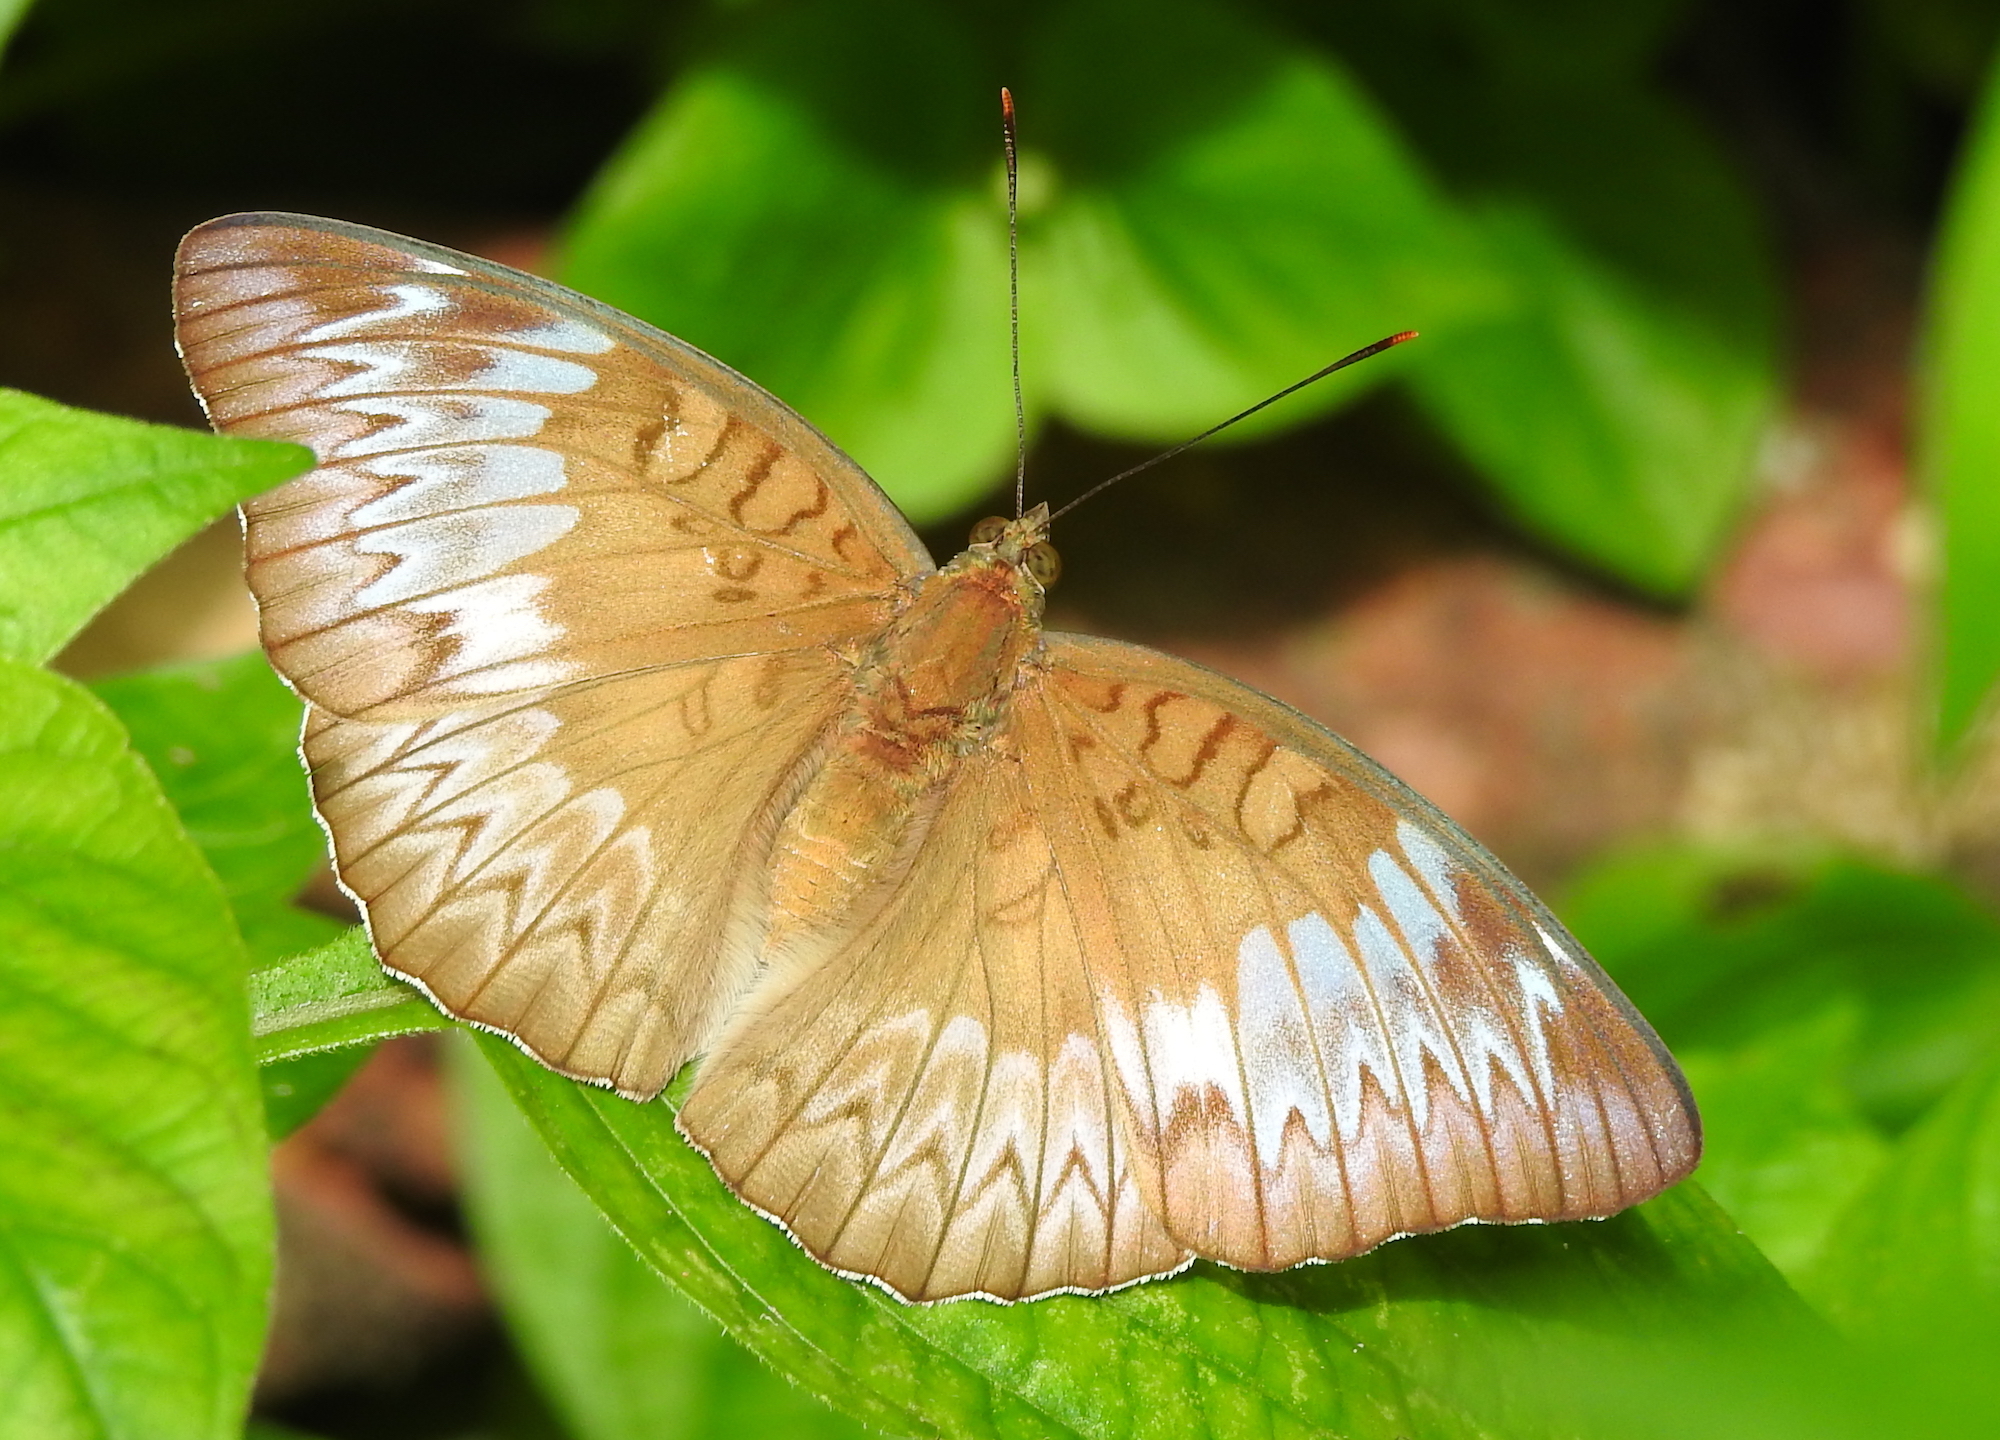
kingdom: Animalia
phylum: Arthropoda
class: Insecta
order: Lepidoptera
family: Nymphalidae
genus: Euthalia
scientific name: Euthalia monina
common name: Powdered baron
